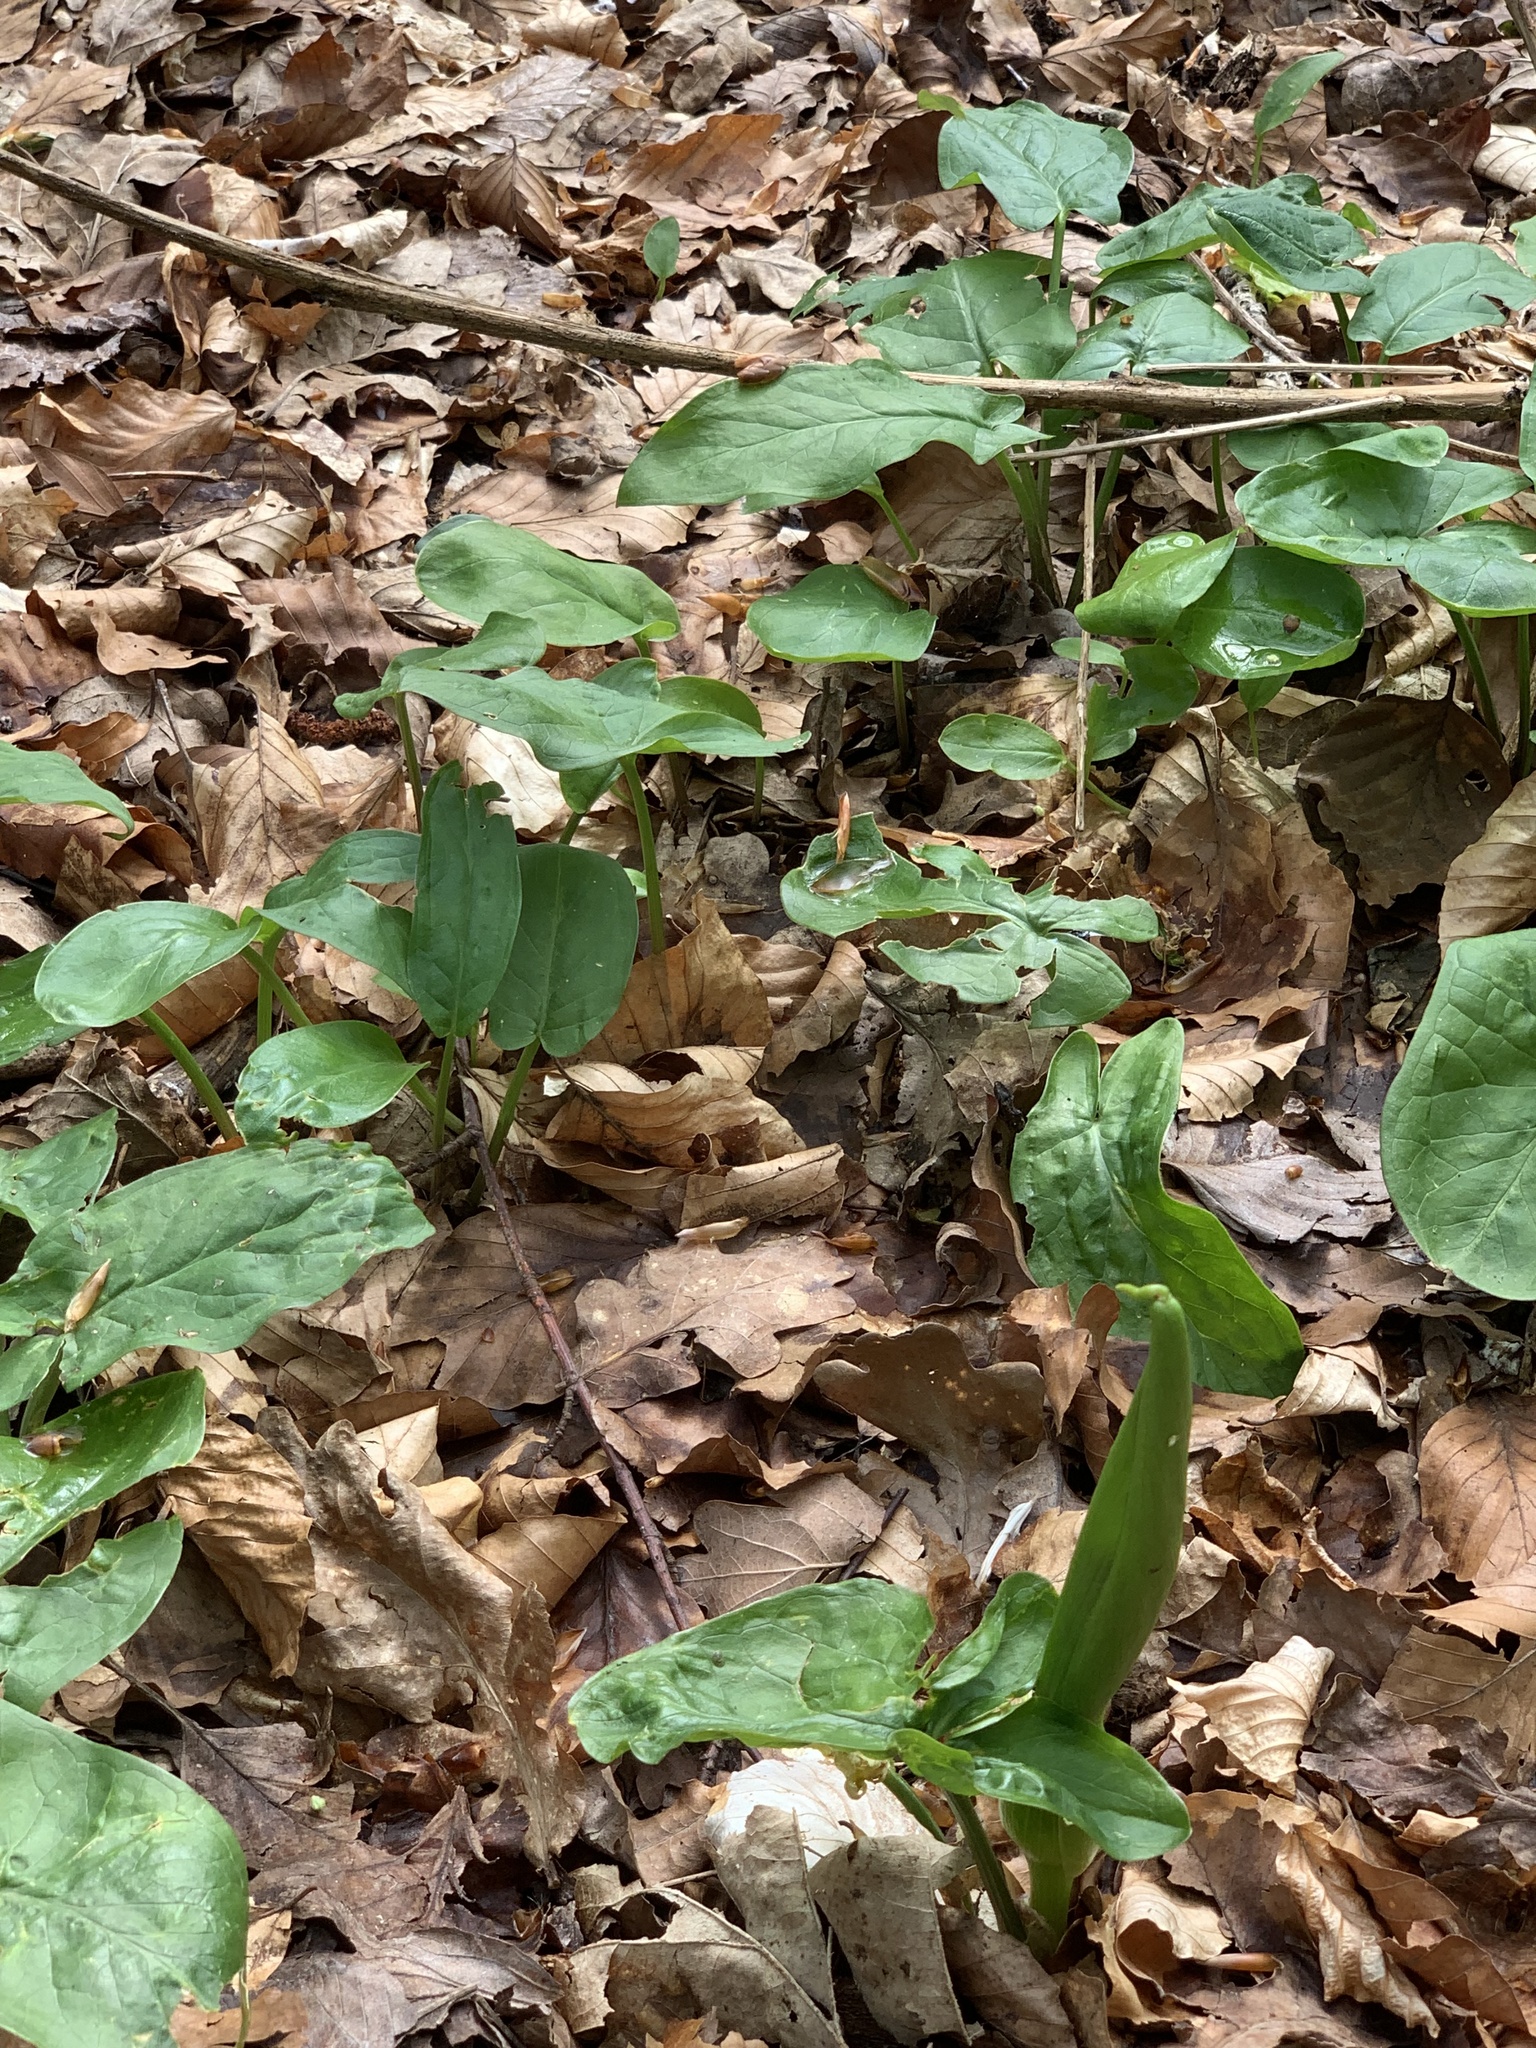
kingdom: Plantae
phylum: Tracheophyta
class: Liliopsida
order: Alismatales
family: Araceae
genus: Arum
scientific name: Arum maculatum
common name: Lords-and-ladies
